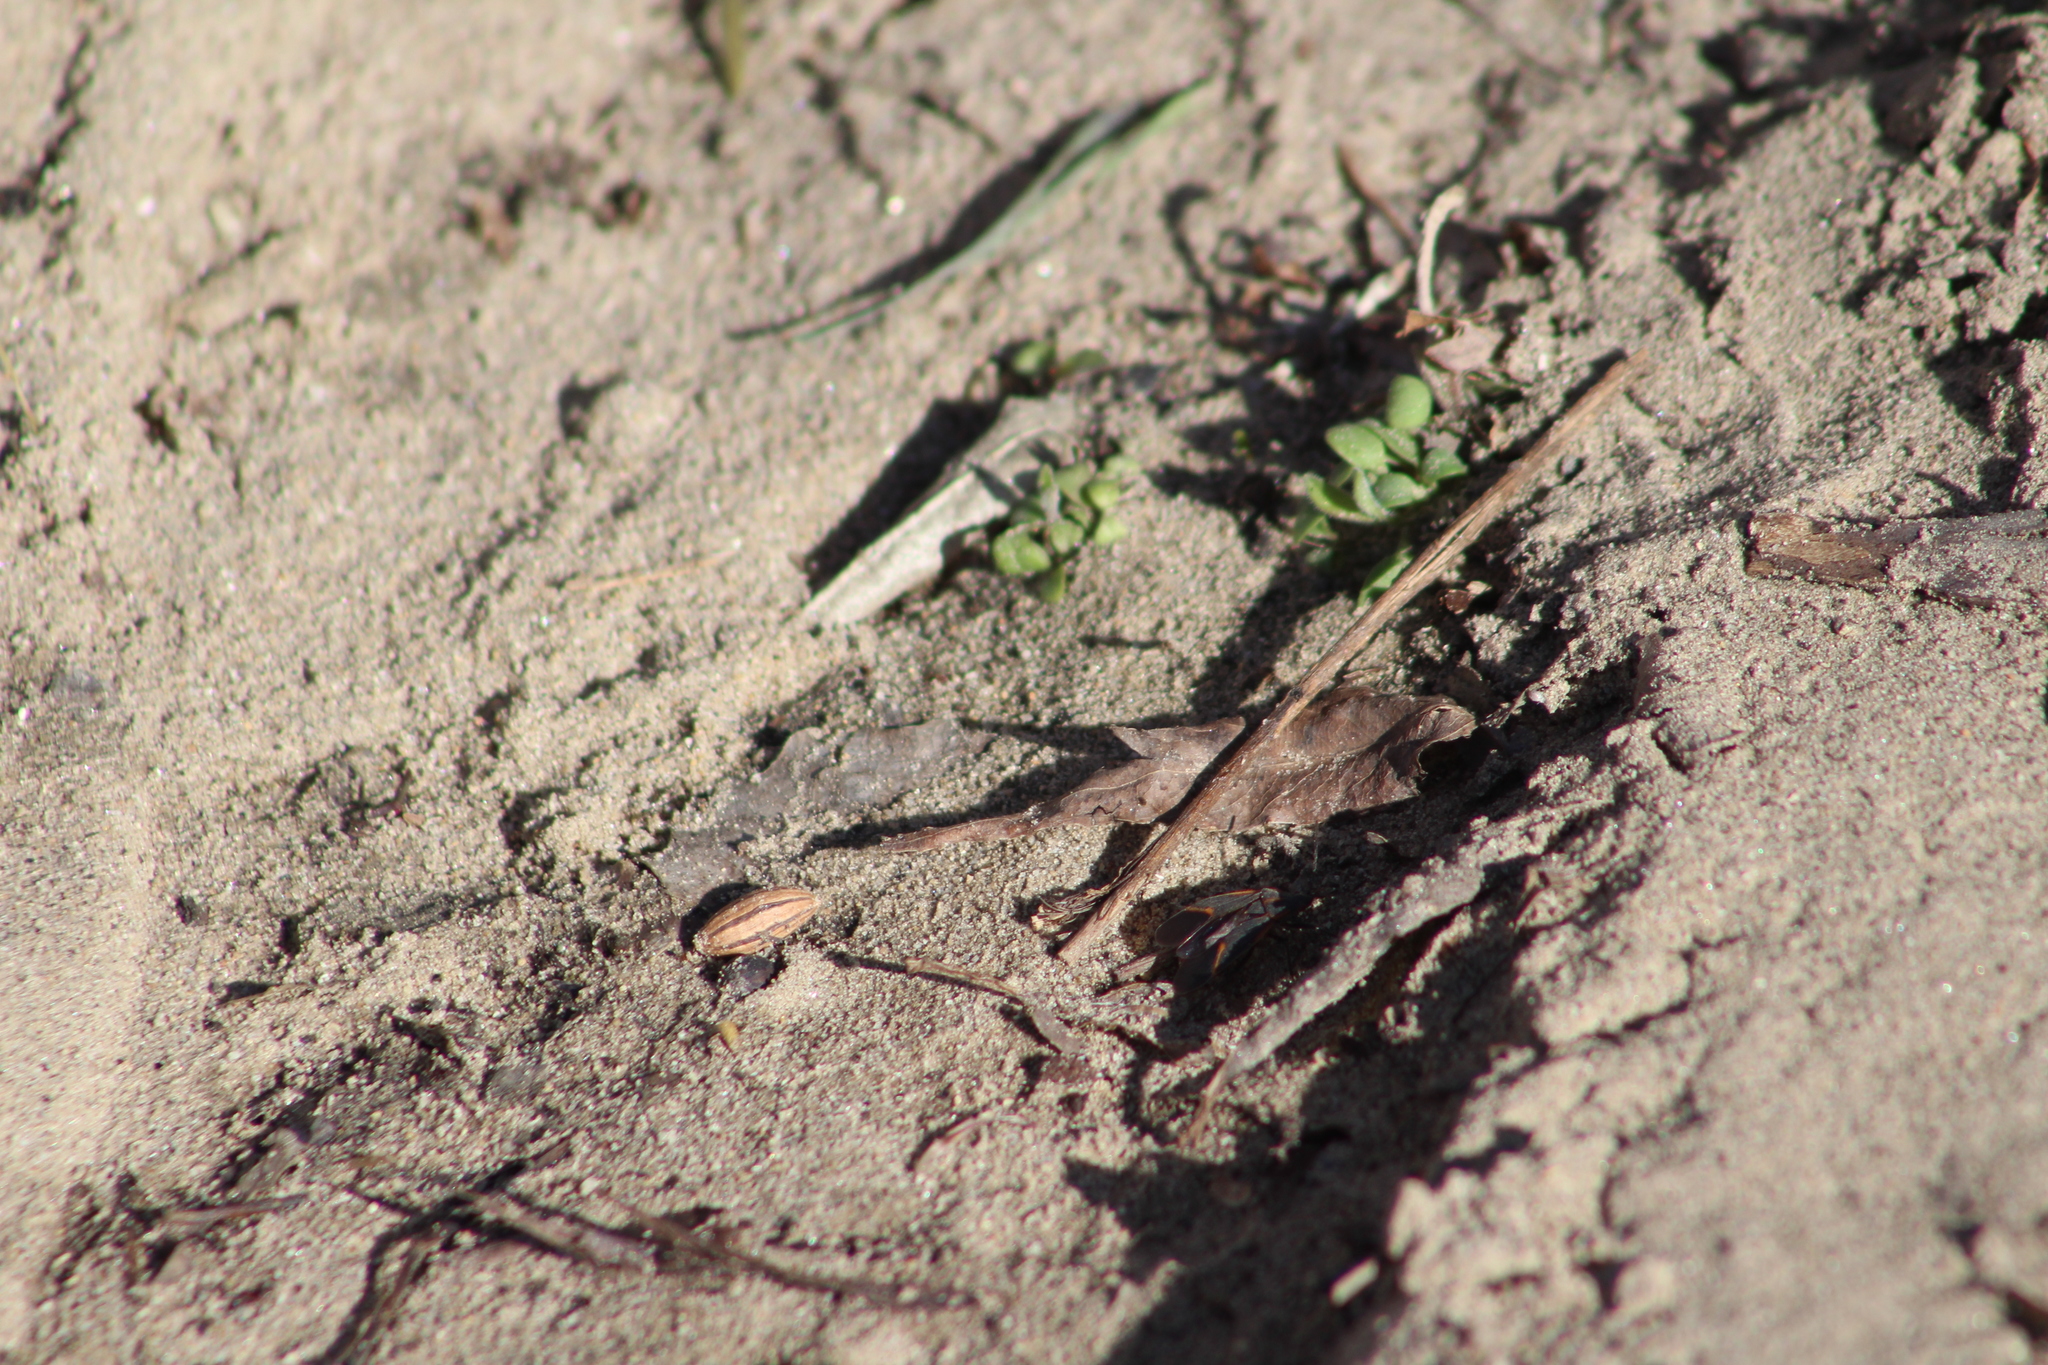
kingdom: Animalia
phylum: Arthropoda
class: Insecta
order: Hemiptera
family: Rhopalidae
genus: Boisea
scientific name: Boisea trivittata
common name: Boxelder bug
